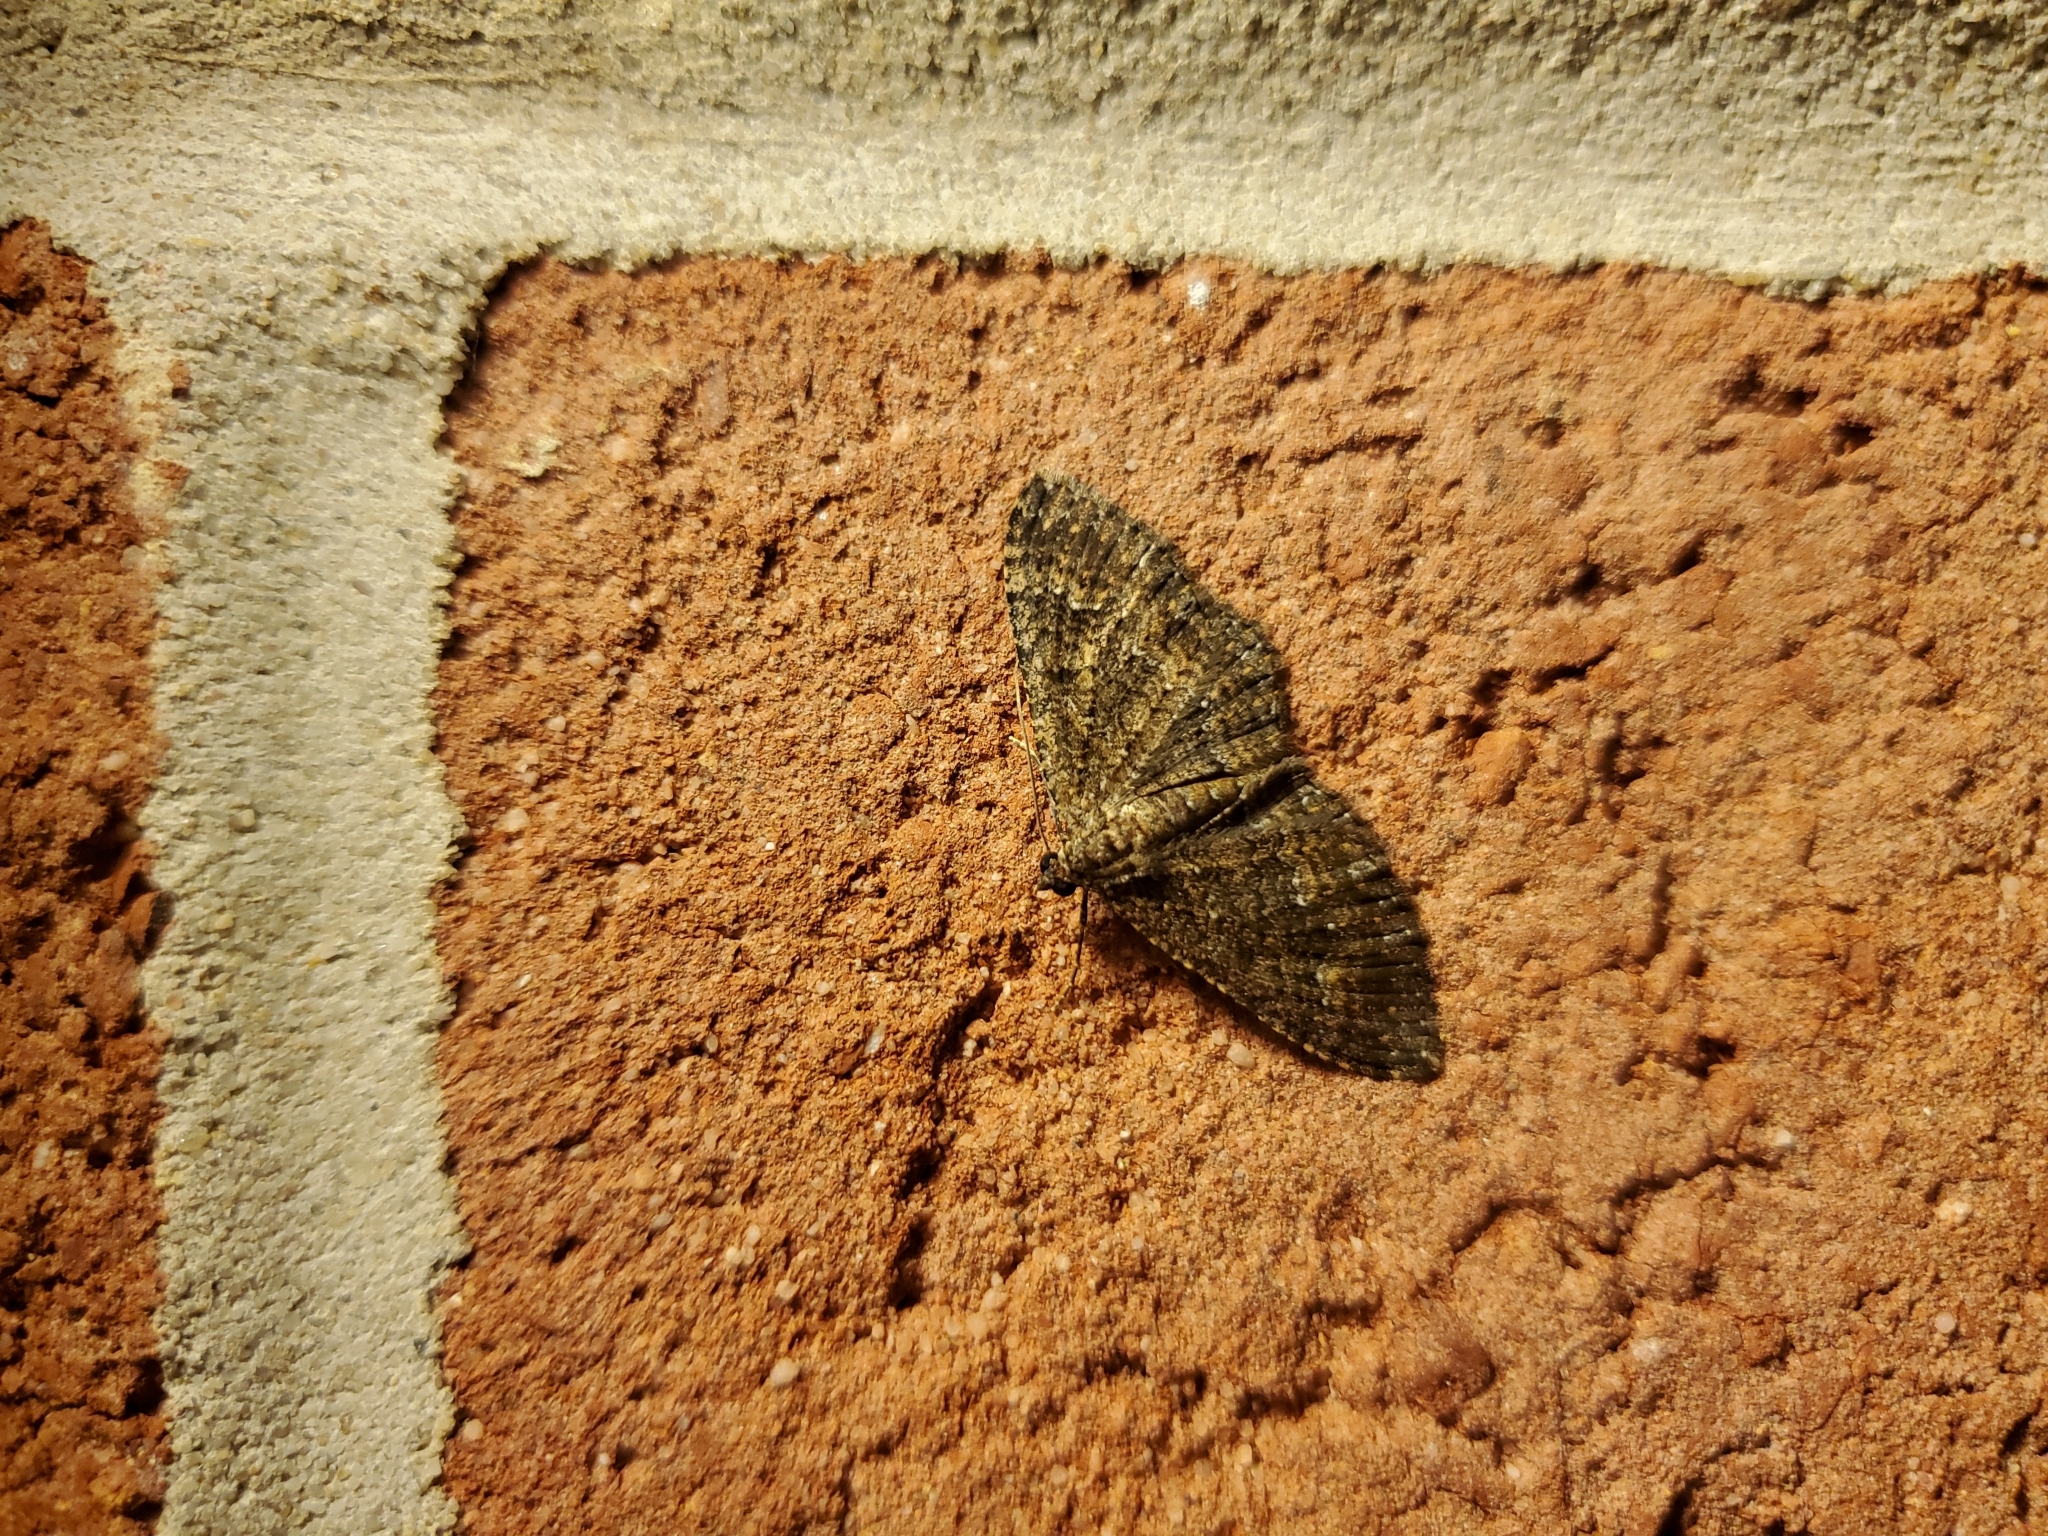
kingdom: Animalia
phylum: Arthropoda
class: Insecta
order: Lepidoptera
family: Geometridae
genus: Disclisioprocta
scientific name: Disclisioprocta stellata
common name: Somber carpet
